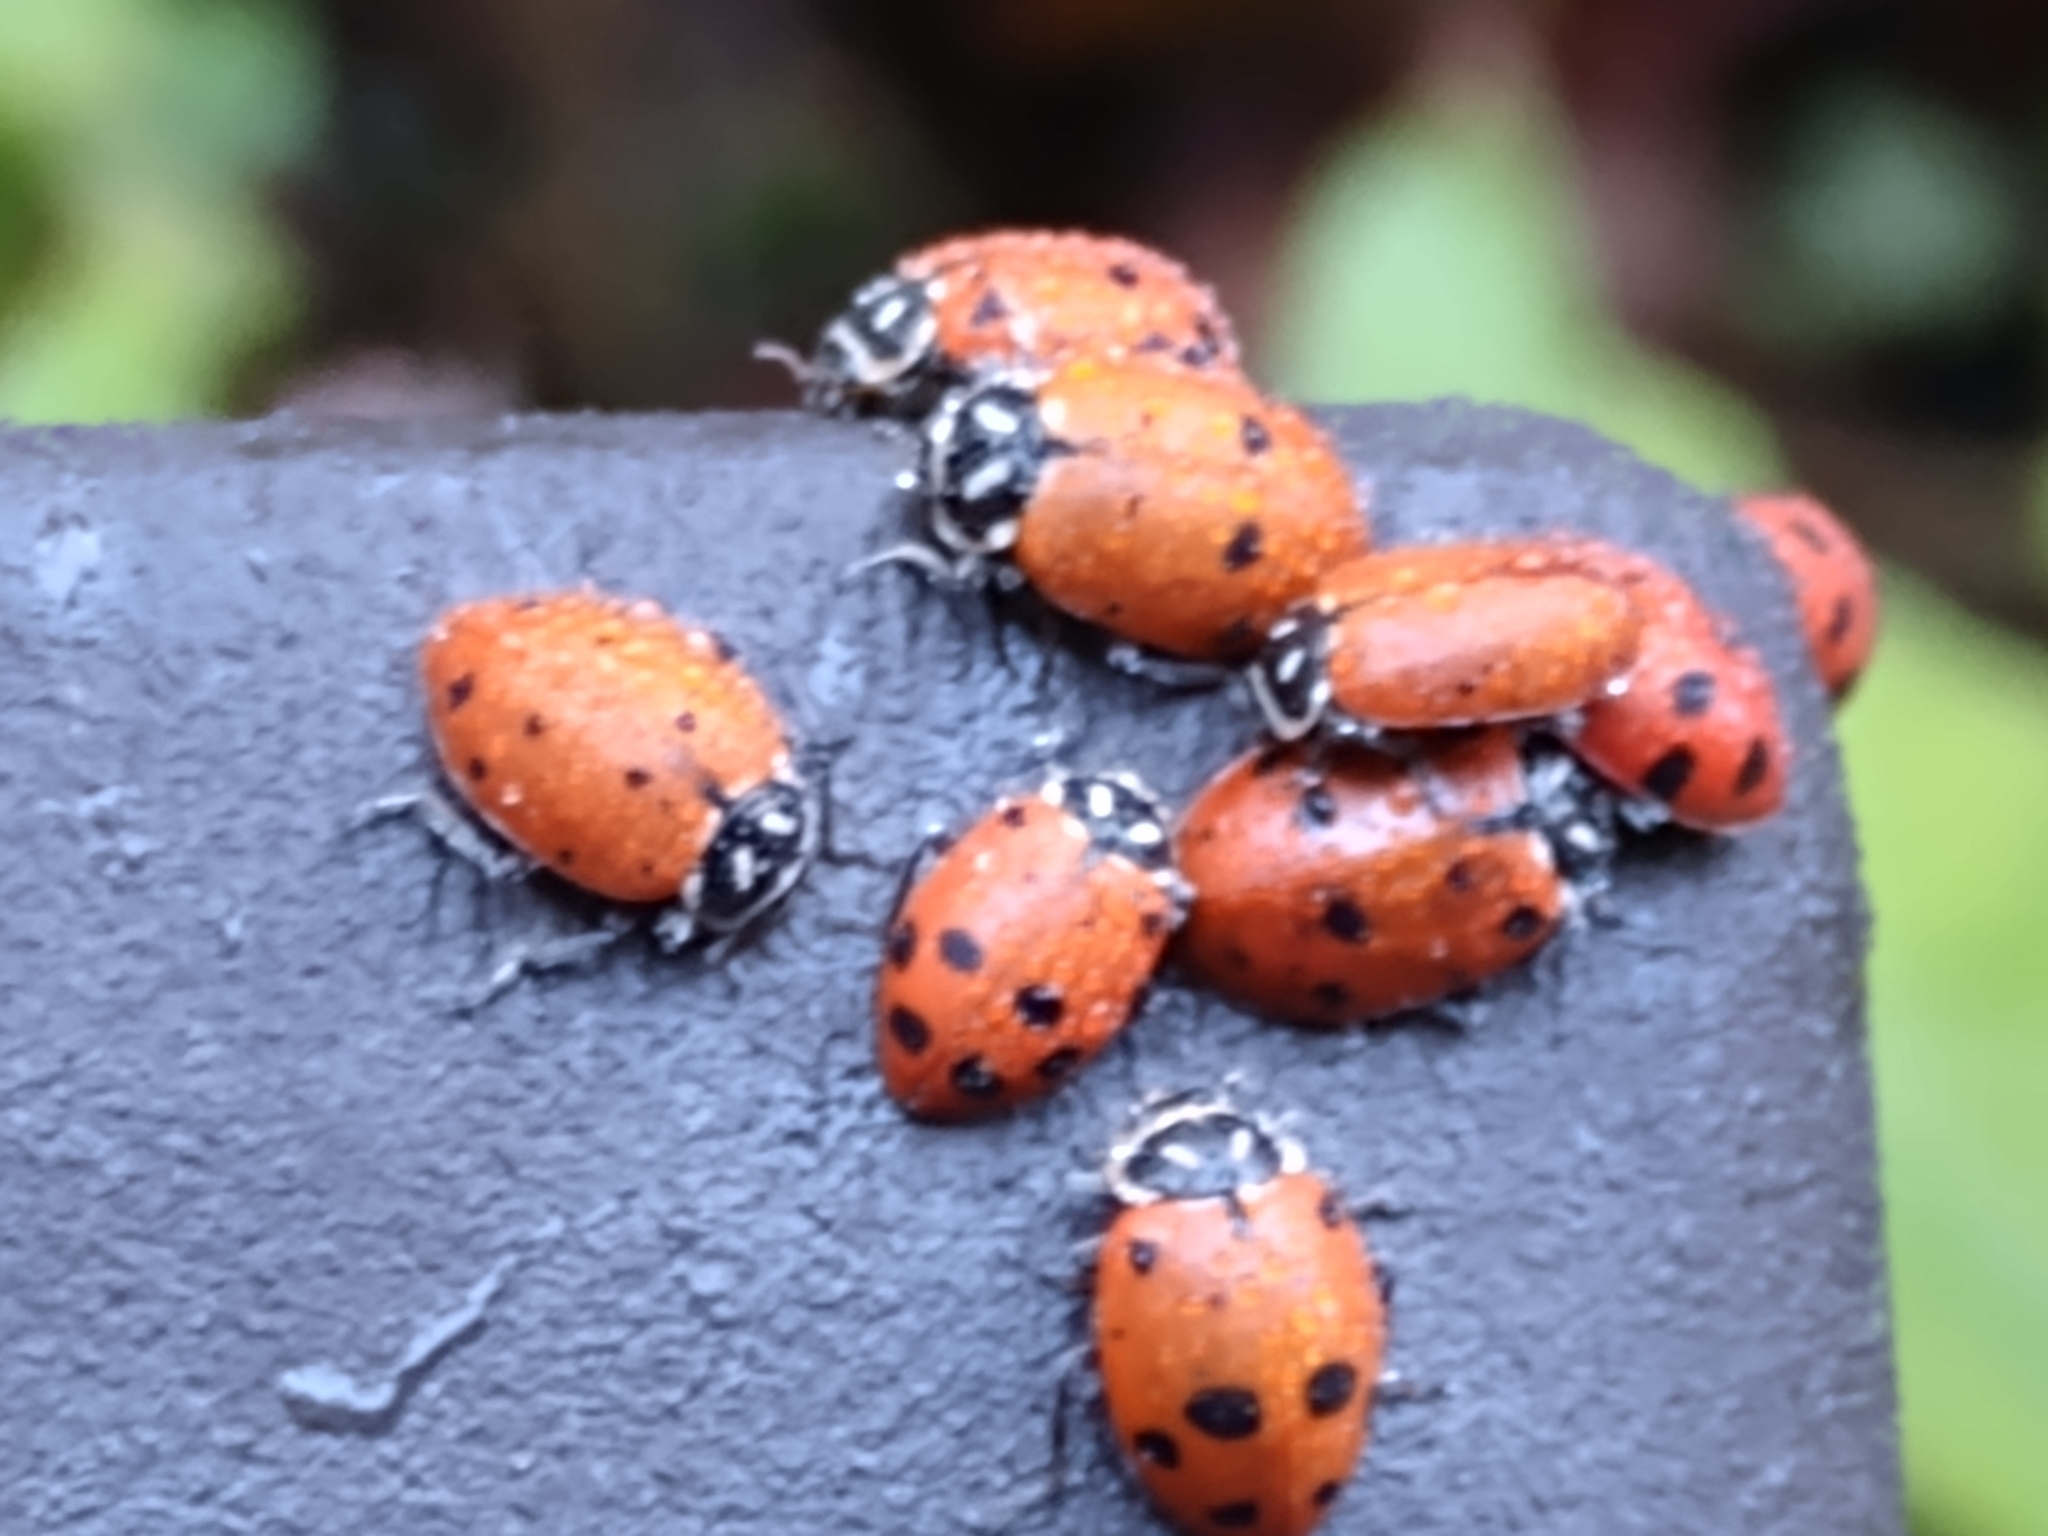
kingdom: Animalia
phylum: Arthropoda
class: Insecta
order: Coleoptera
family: Coccinellidae
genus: Hippodamia
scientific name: Hippodamia convergens
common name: Convergent lady beetle
